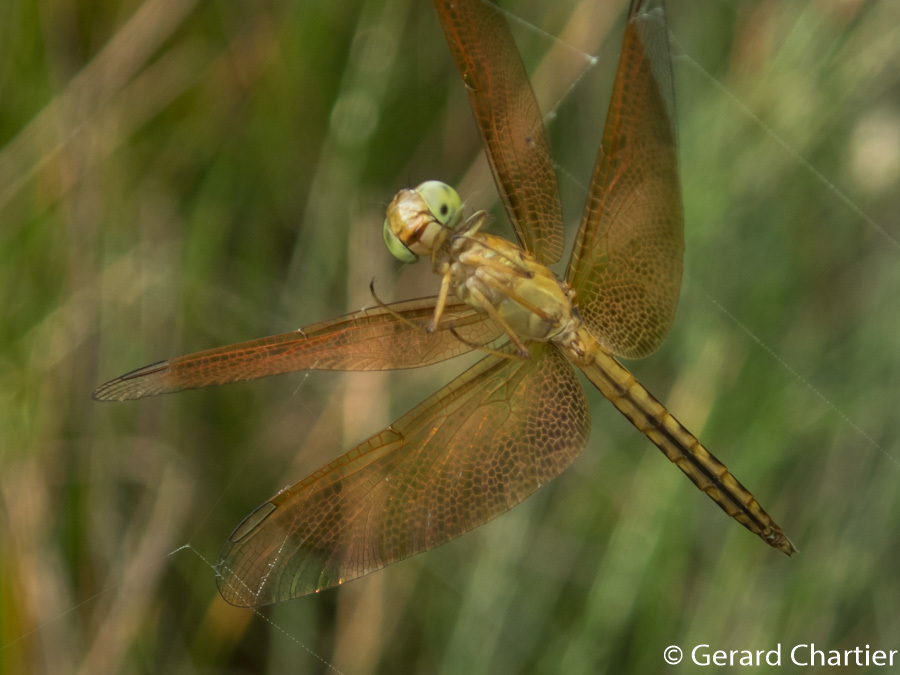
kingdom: Animalia
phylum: Arthropoda
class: Insecta
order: Odonata
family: Libellulidae
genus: Neurothemis
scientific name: Neurothemis fluctuans
